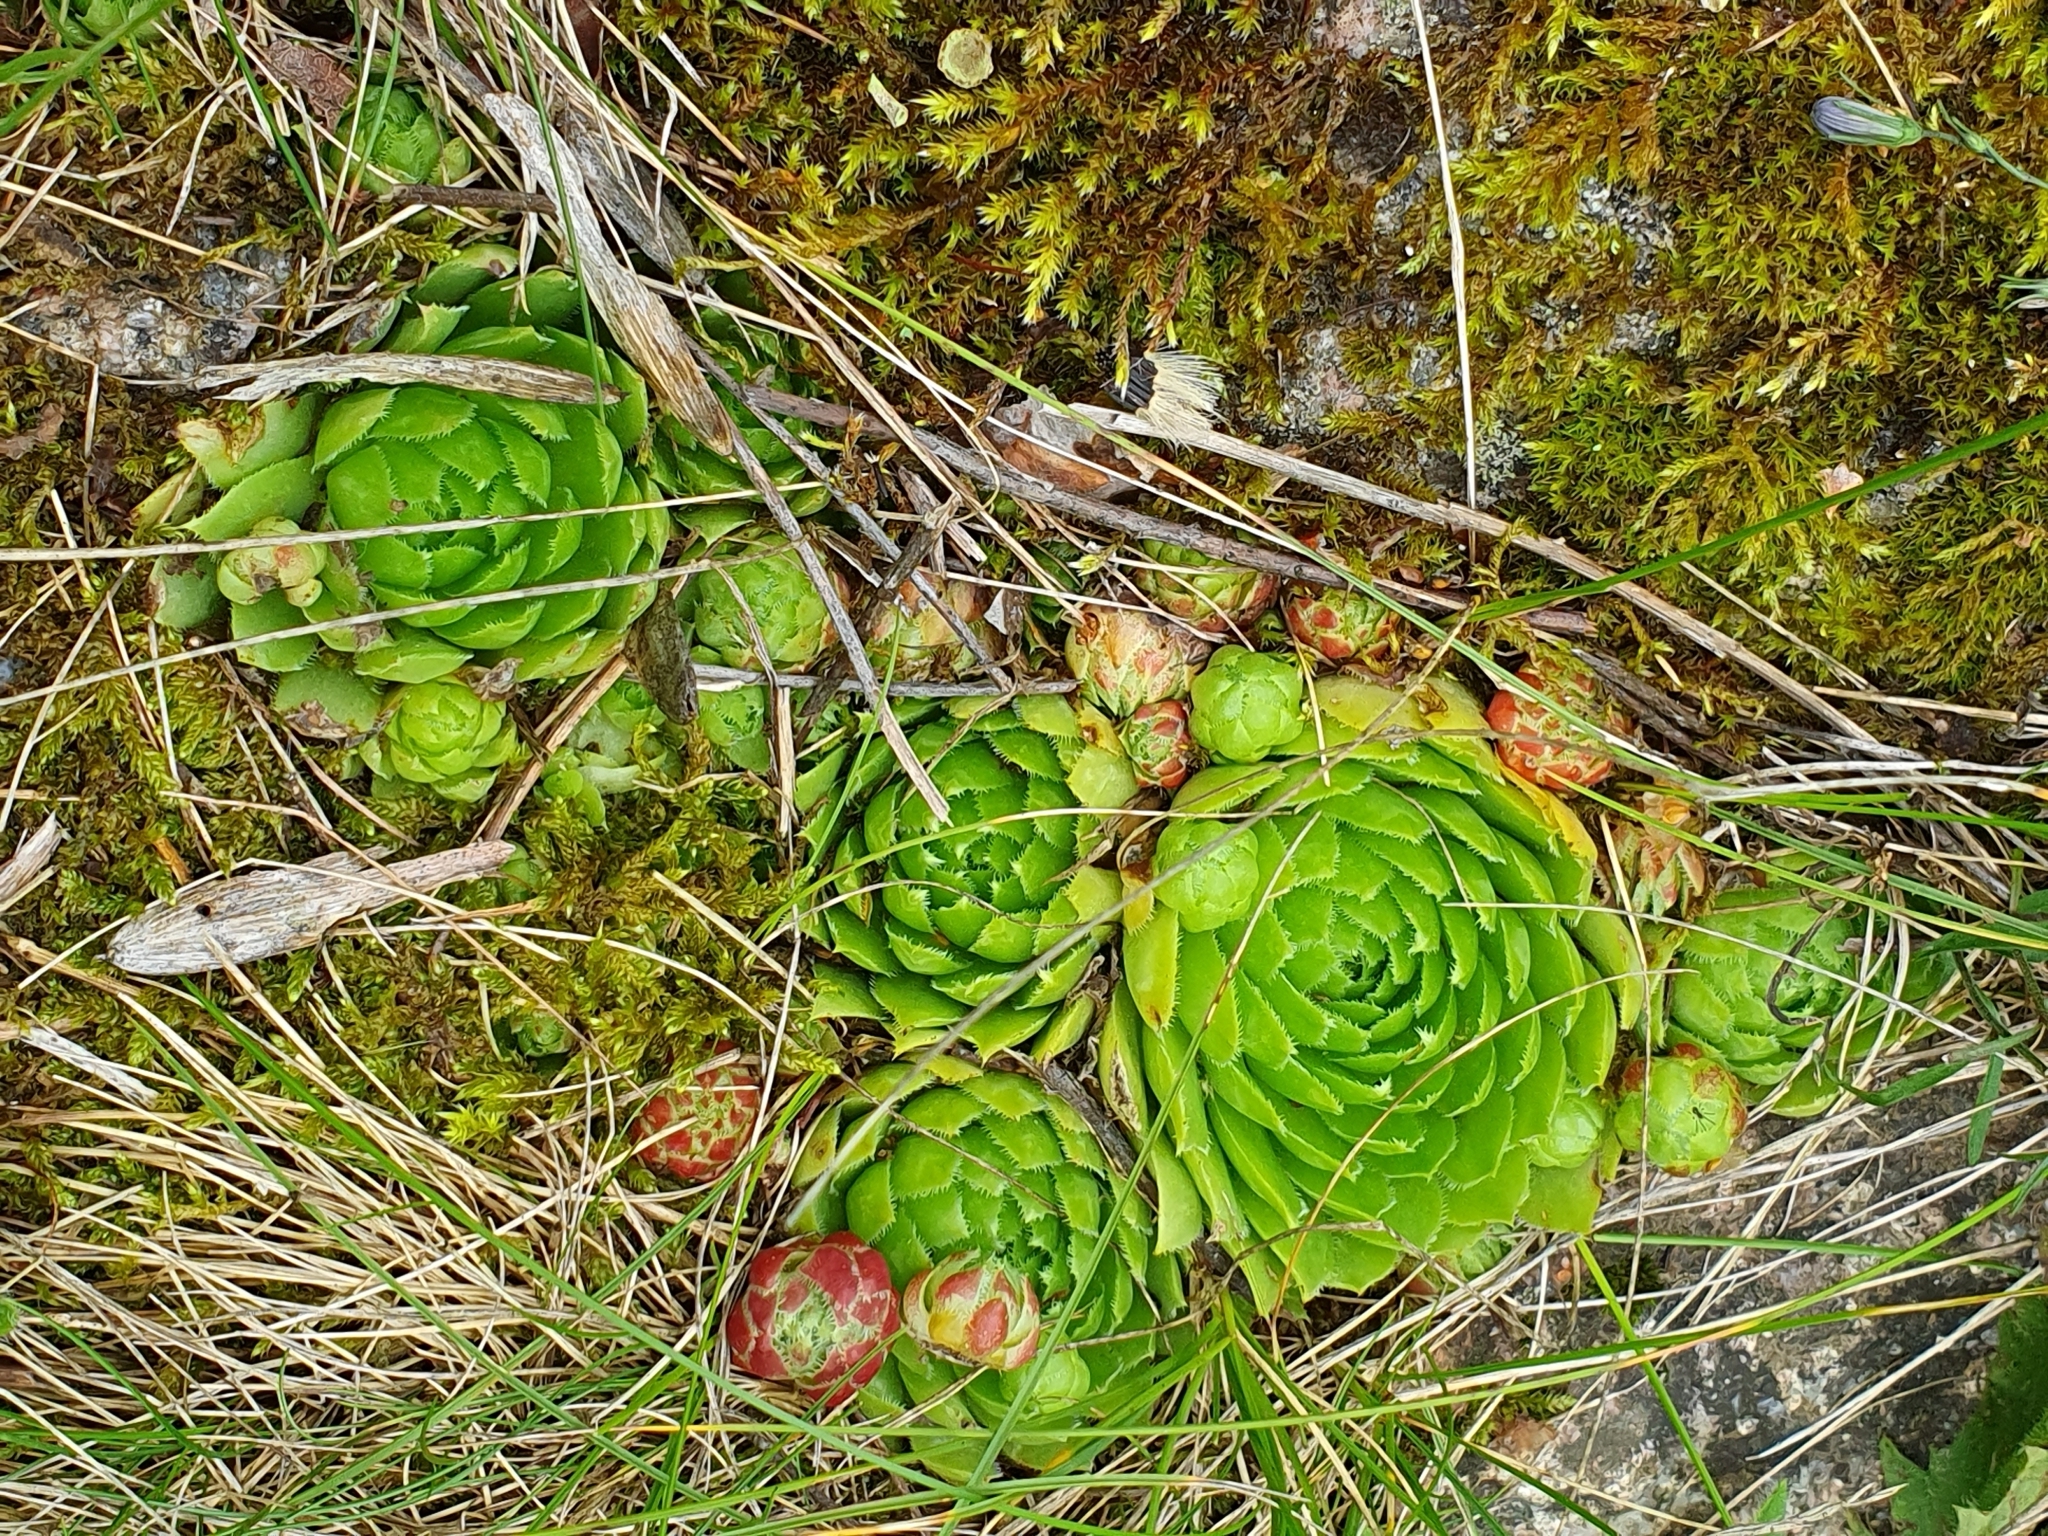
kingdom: Plantae
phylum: Tracheophyta
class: Magnoliopsida
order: Saxifragales
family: Crassulaceae
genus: Sempervivum
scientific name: Sempervivum globiferum
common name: Rolling hen-and-chicks
